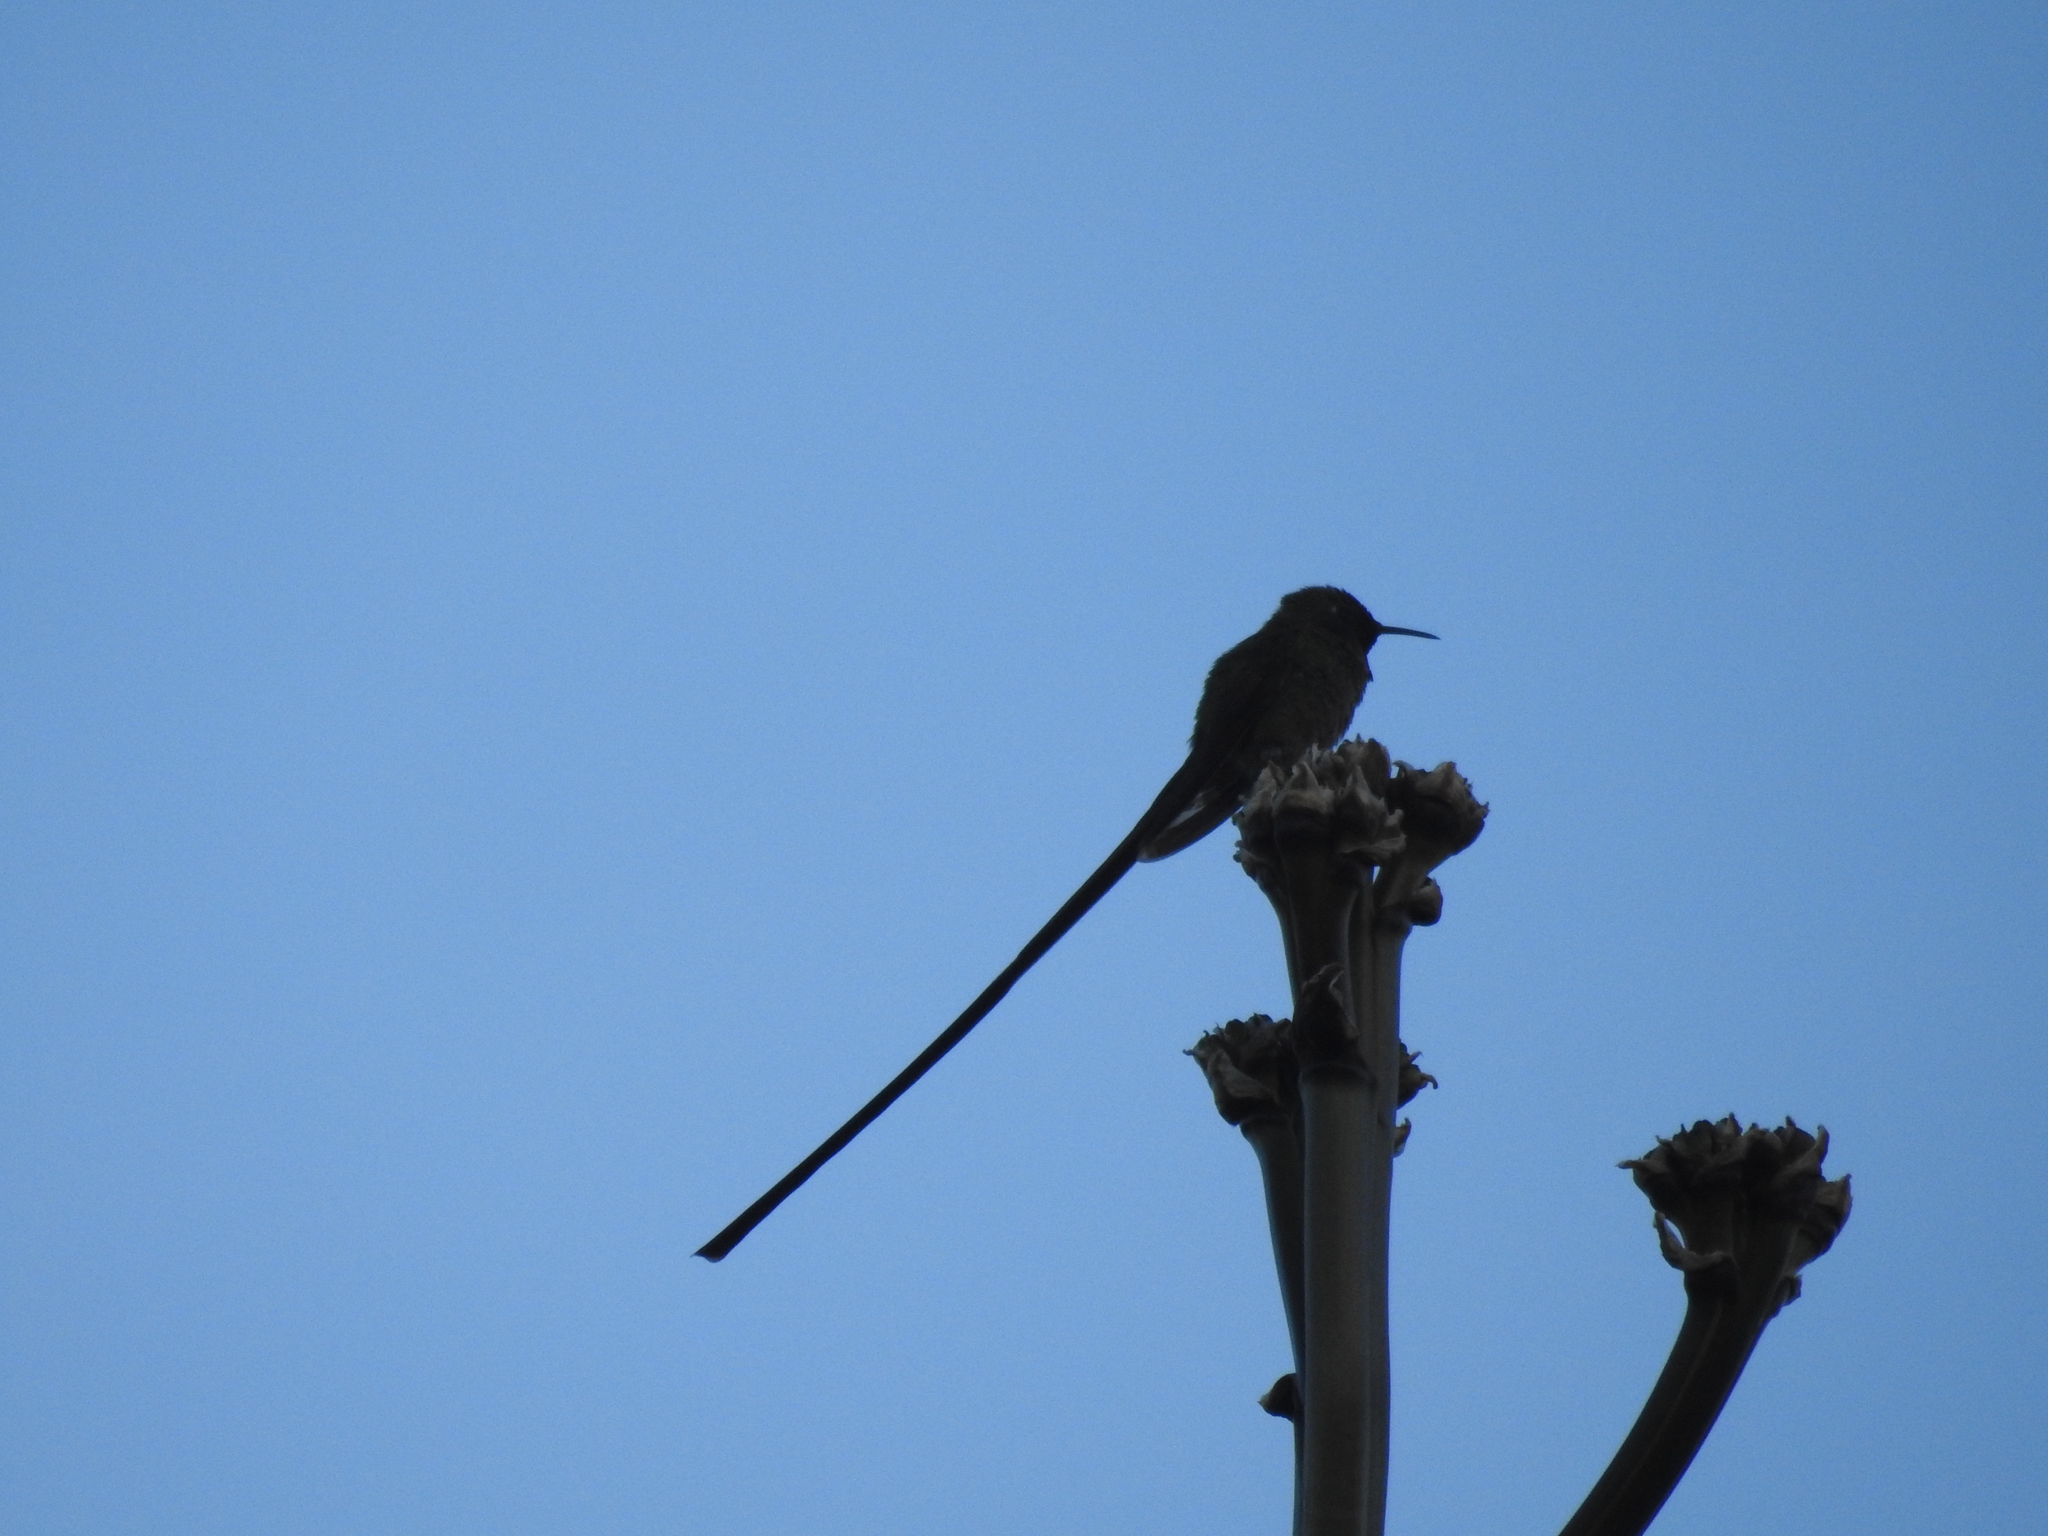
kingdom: Animalia
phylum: Chordata
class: Aves
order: Apodiformes
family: Trochilidae
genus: Lesbia
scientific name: Lesbia victoriae
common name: Black-tailed trainbearer
